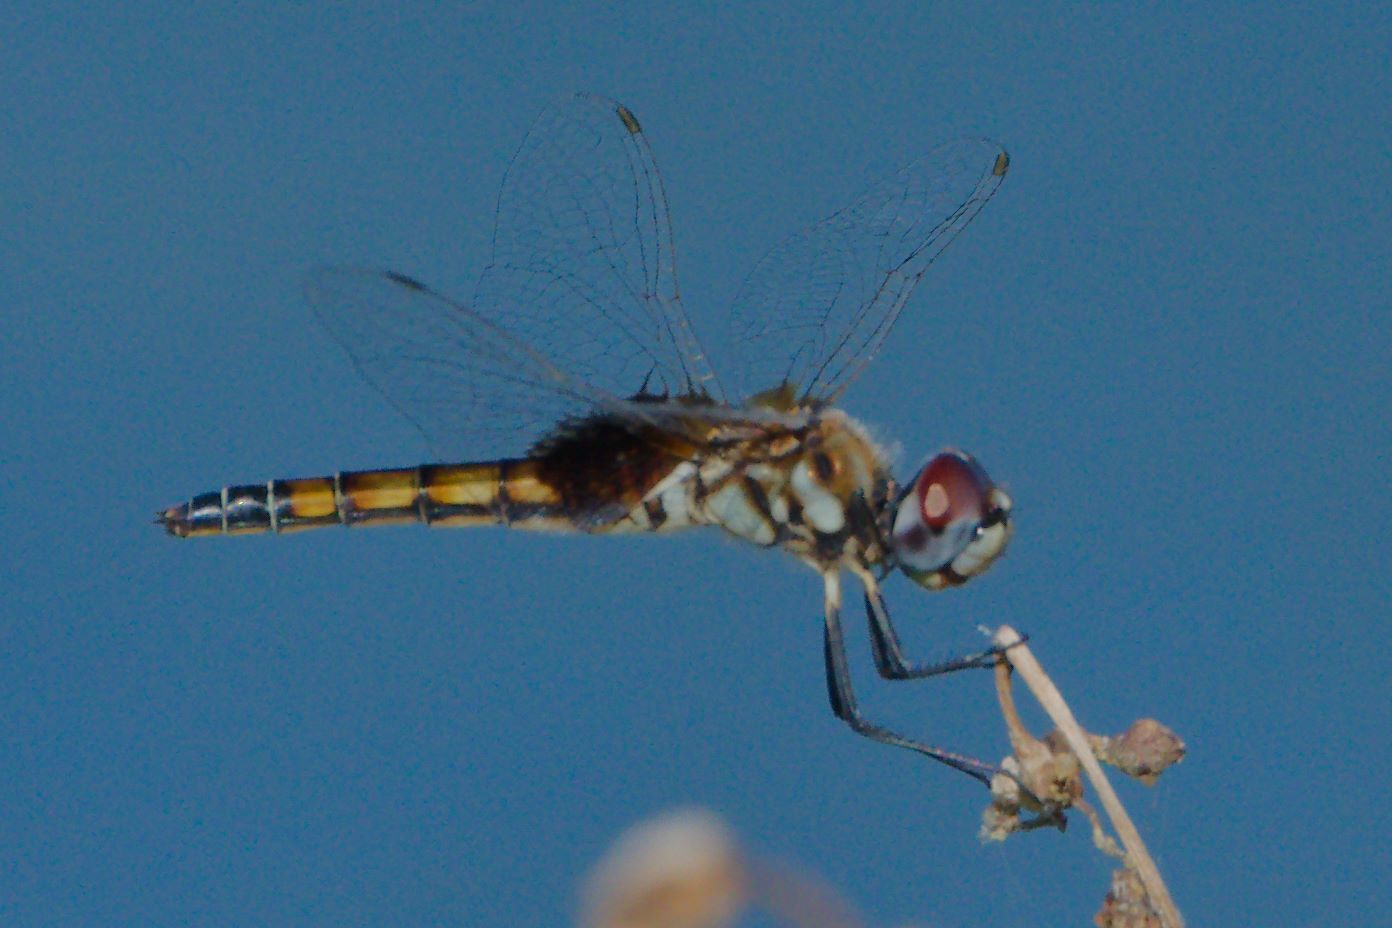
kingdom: Animalia
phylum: Arthropoda
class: Insecta
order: Odonata
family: Libellulidae
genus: Macrodiplax
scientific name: Macrodiplax balteata
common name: Marl pennant
